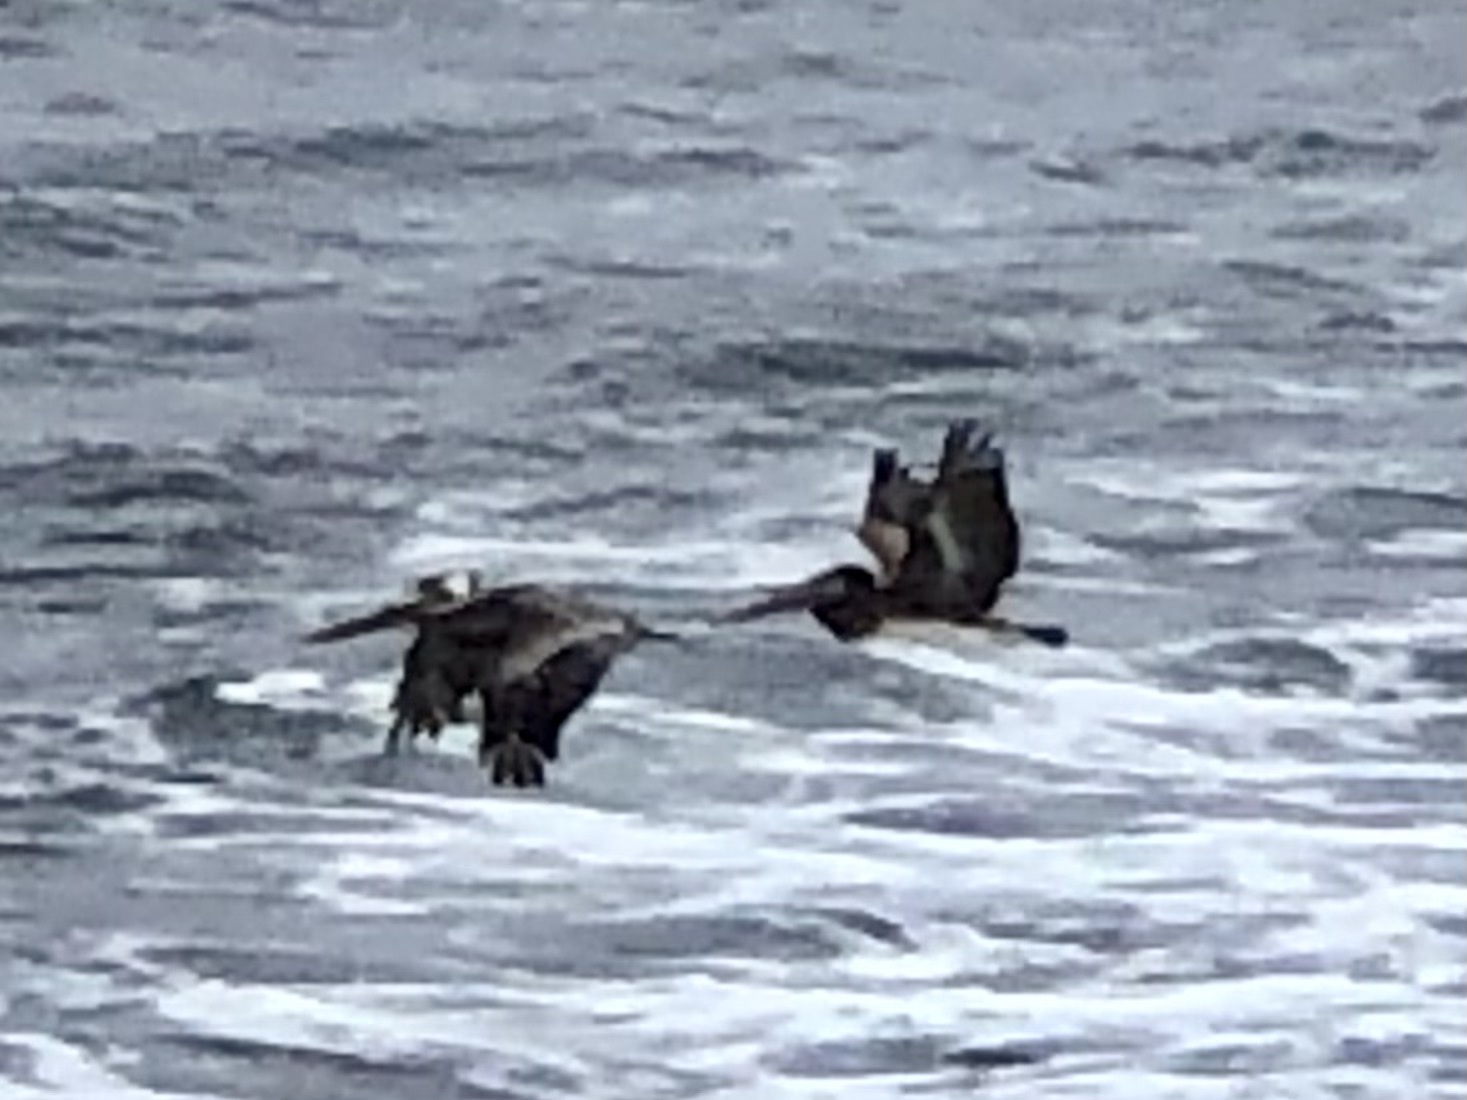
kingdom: Animalia
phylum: Chordata
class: Aves
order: Pelecaniformes
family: Pelecanidae
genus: Pelecanus
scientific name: Pelecanus occidentalis
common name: Brown pelican
